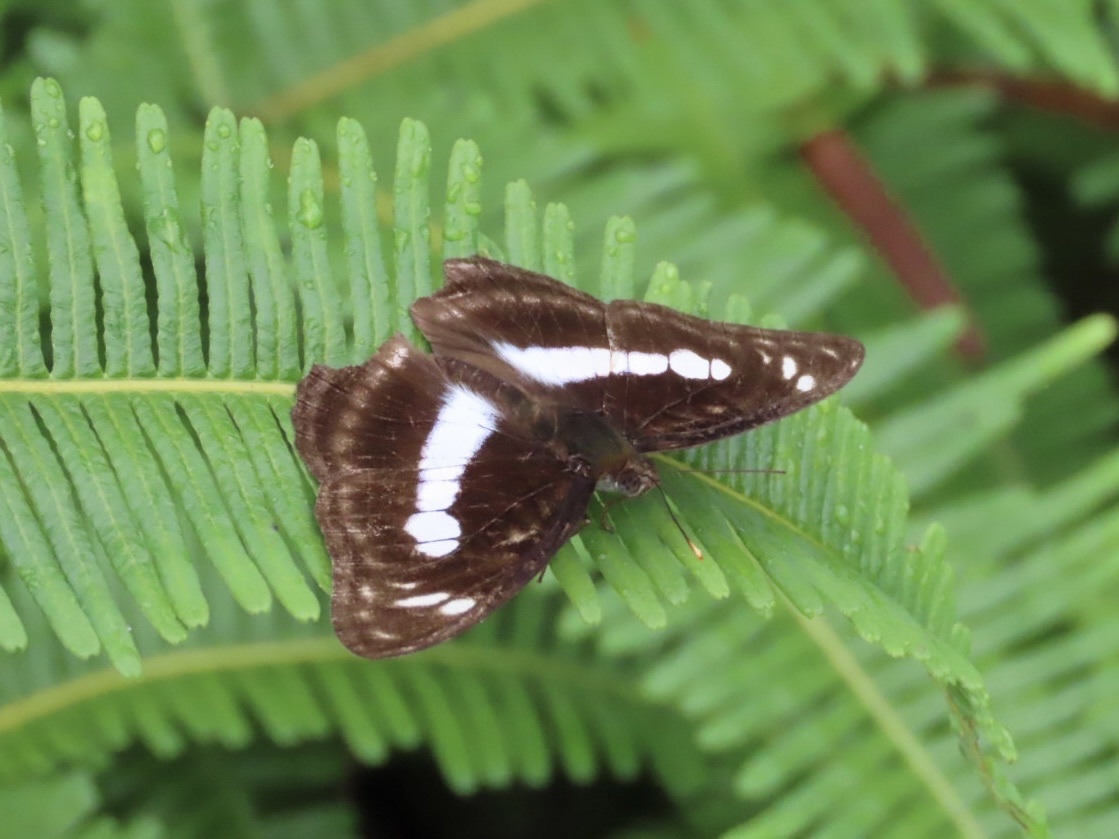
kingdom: Animalia
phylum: Arthropoda
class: Insecta
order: Lepidoptera
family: Nymphalidae
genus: Parathyma
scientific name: Parathyma selenophora
